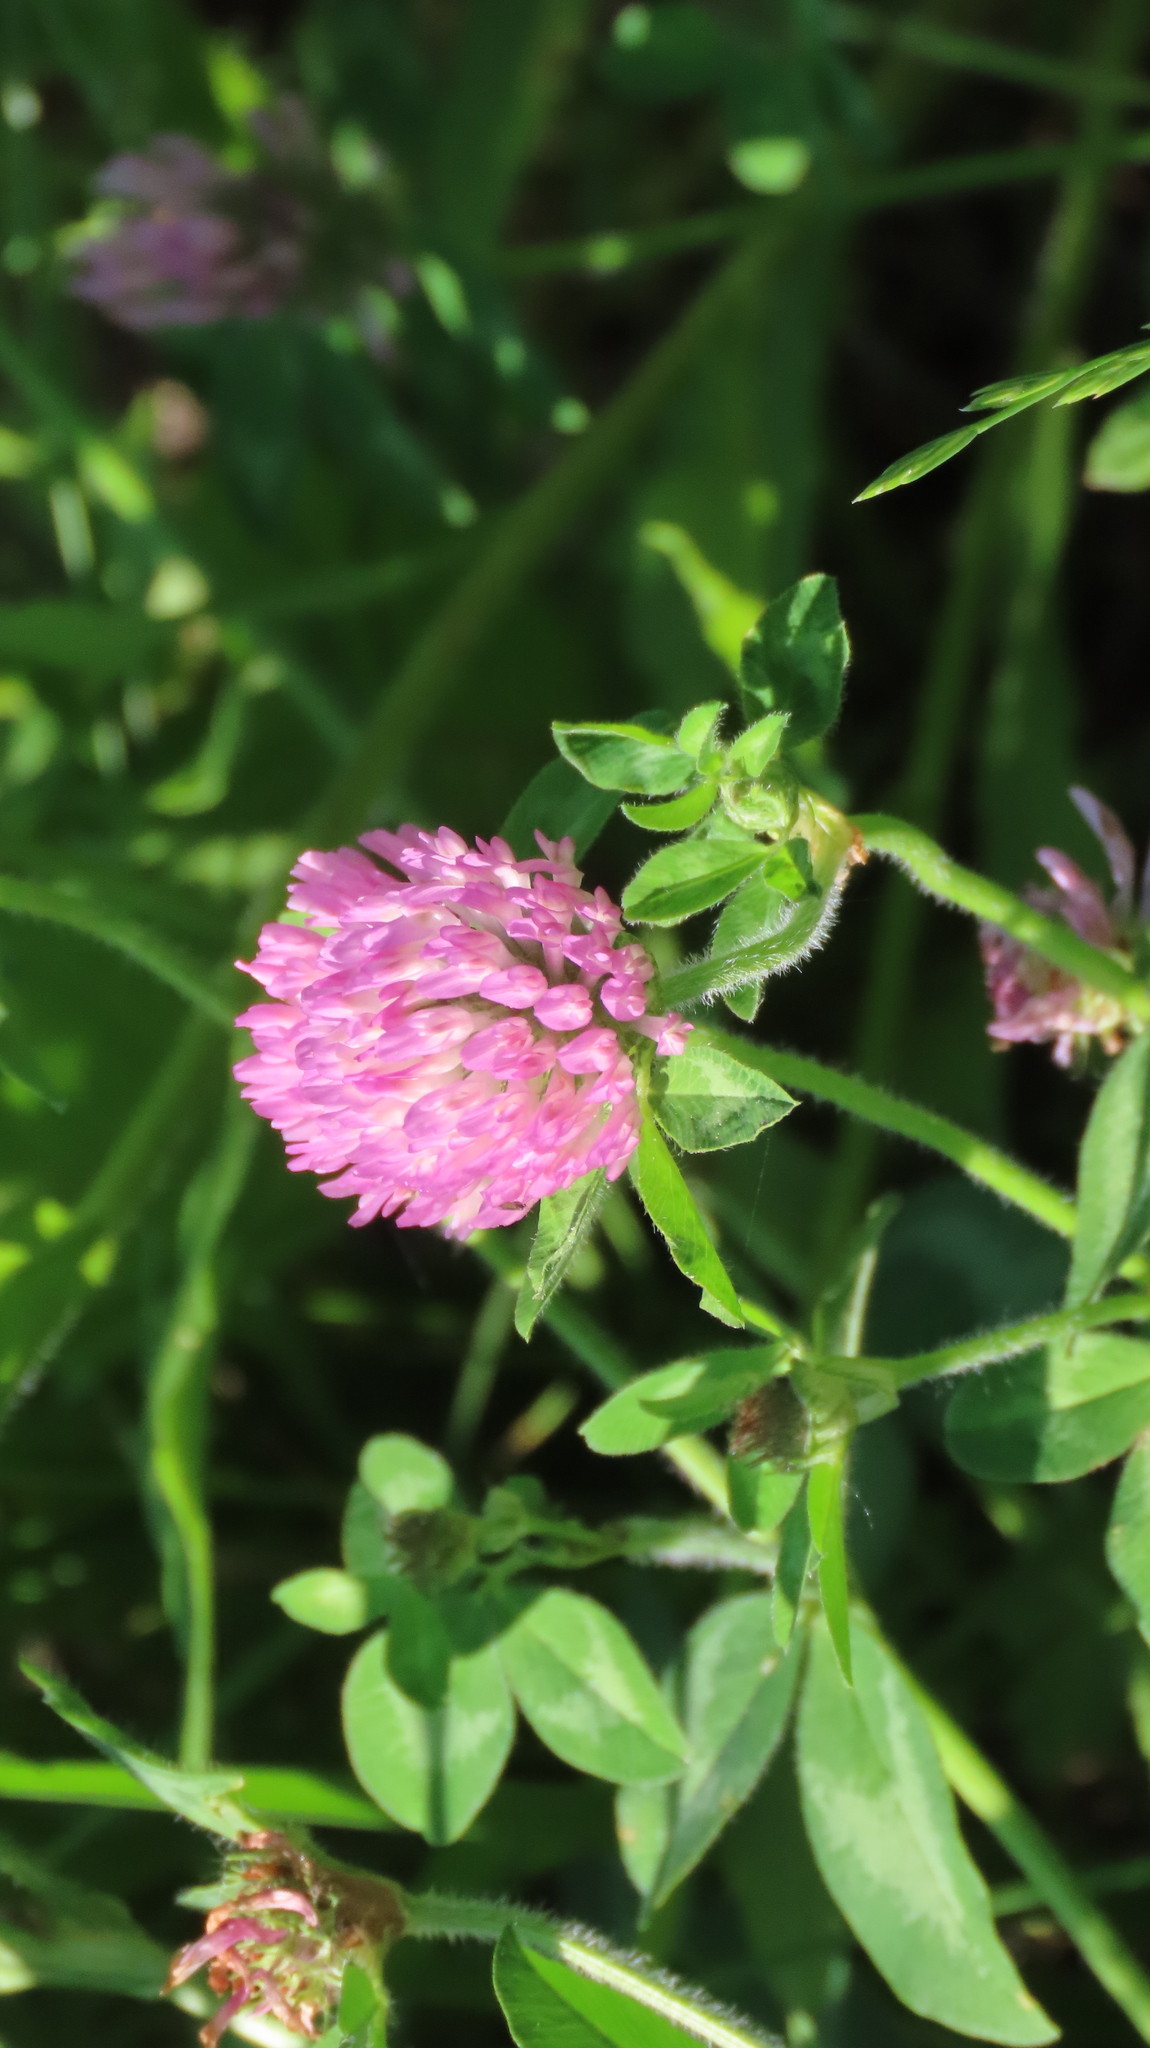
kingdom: Plantae
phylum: Tracheophyta
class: Magnoliopsida
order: Fabales
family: Fabaceae
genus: Trifolium
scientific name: Trifolium pratense
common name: Red clover
